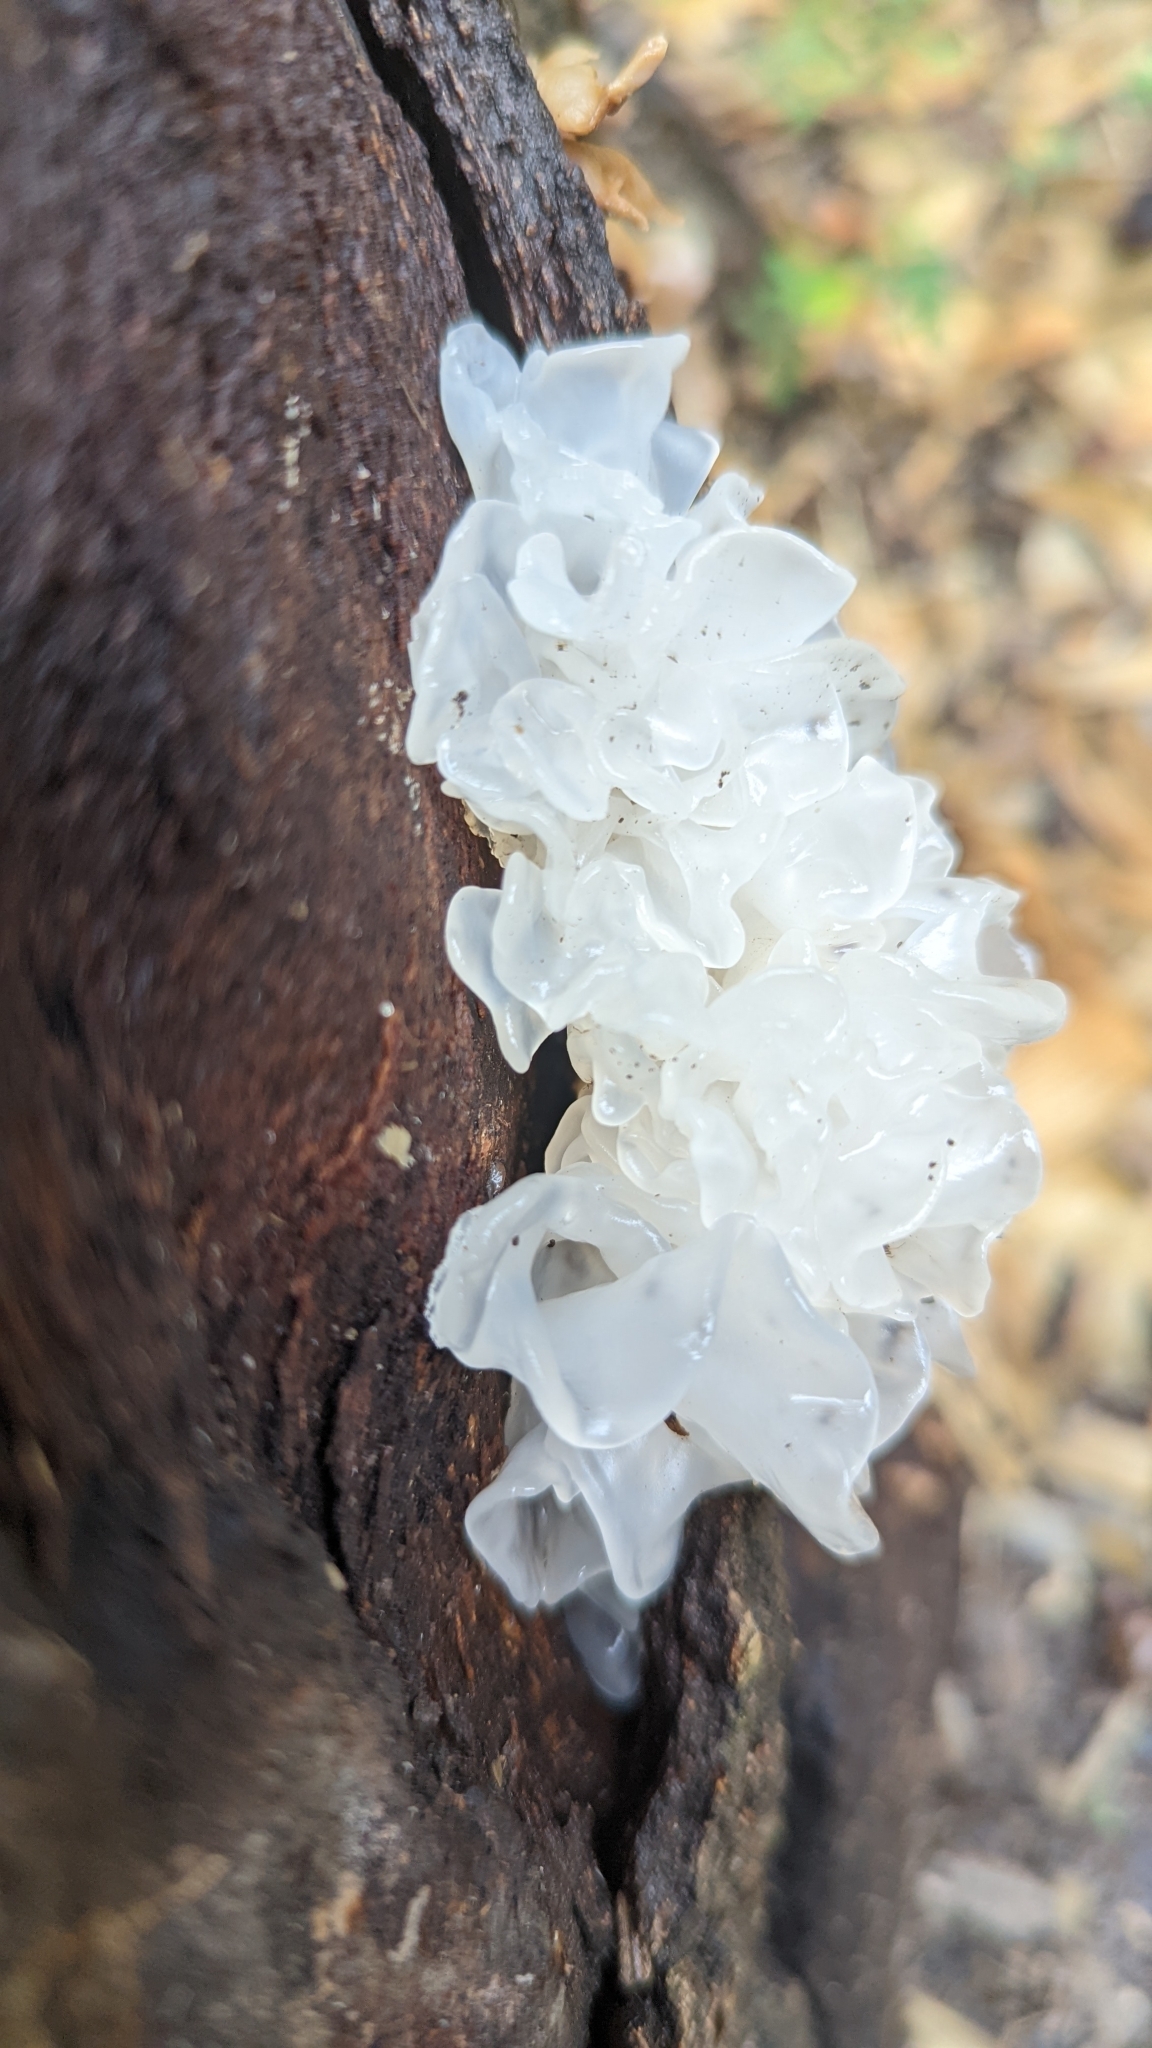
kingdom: Fungi
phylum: Basidiomycota
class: Tremellomycetes
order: Tremellales
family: Tremellaceae
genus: Tremella
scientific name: Tremella fuciformis
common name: Snow fungus
